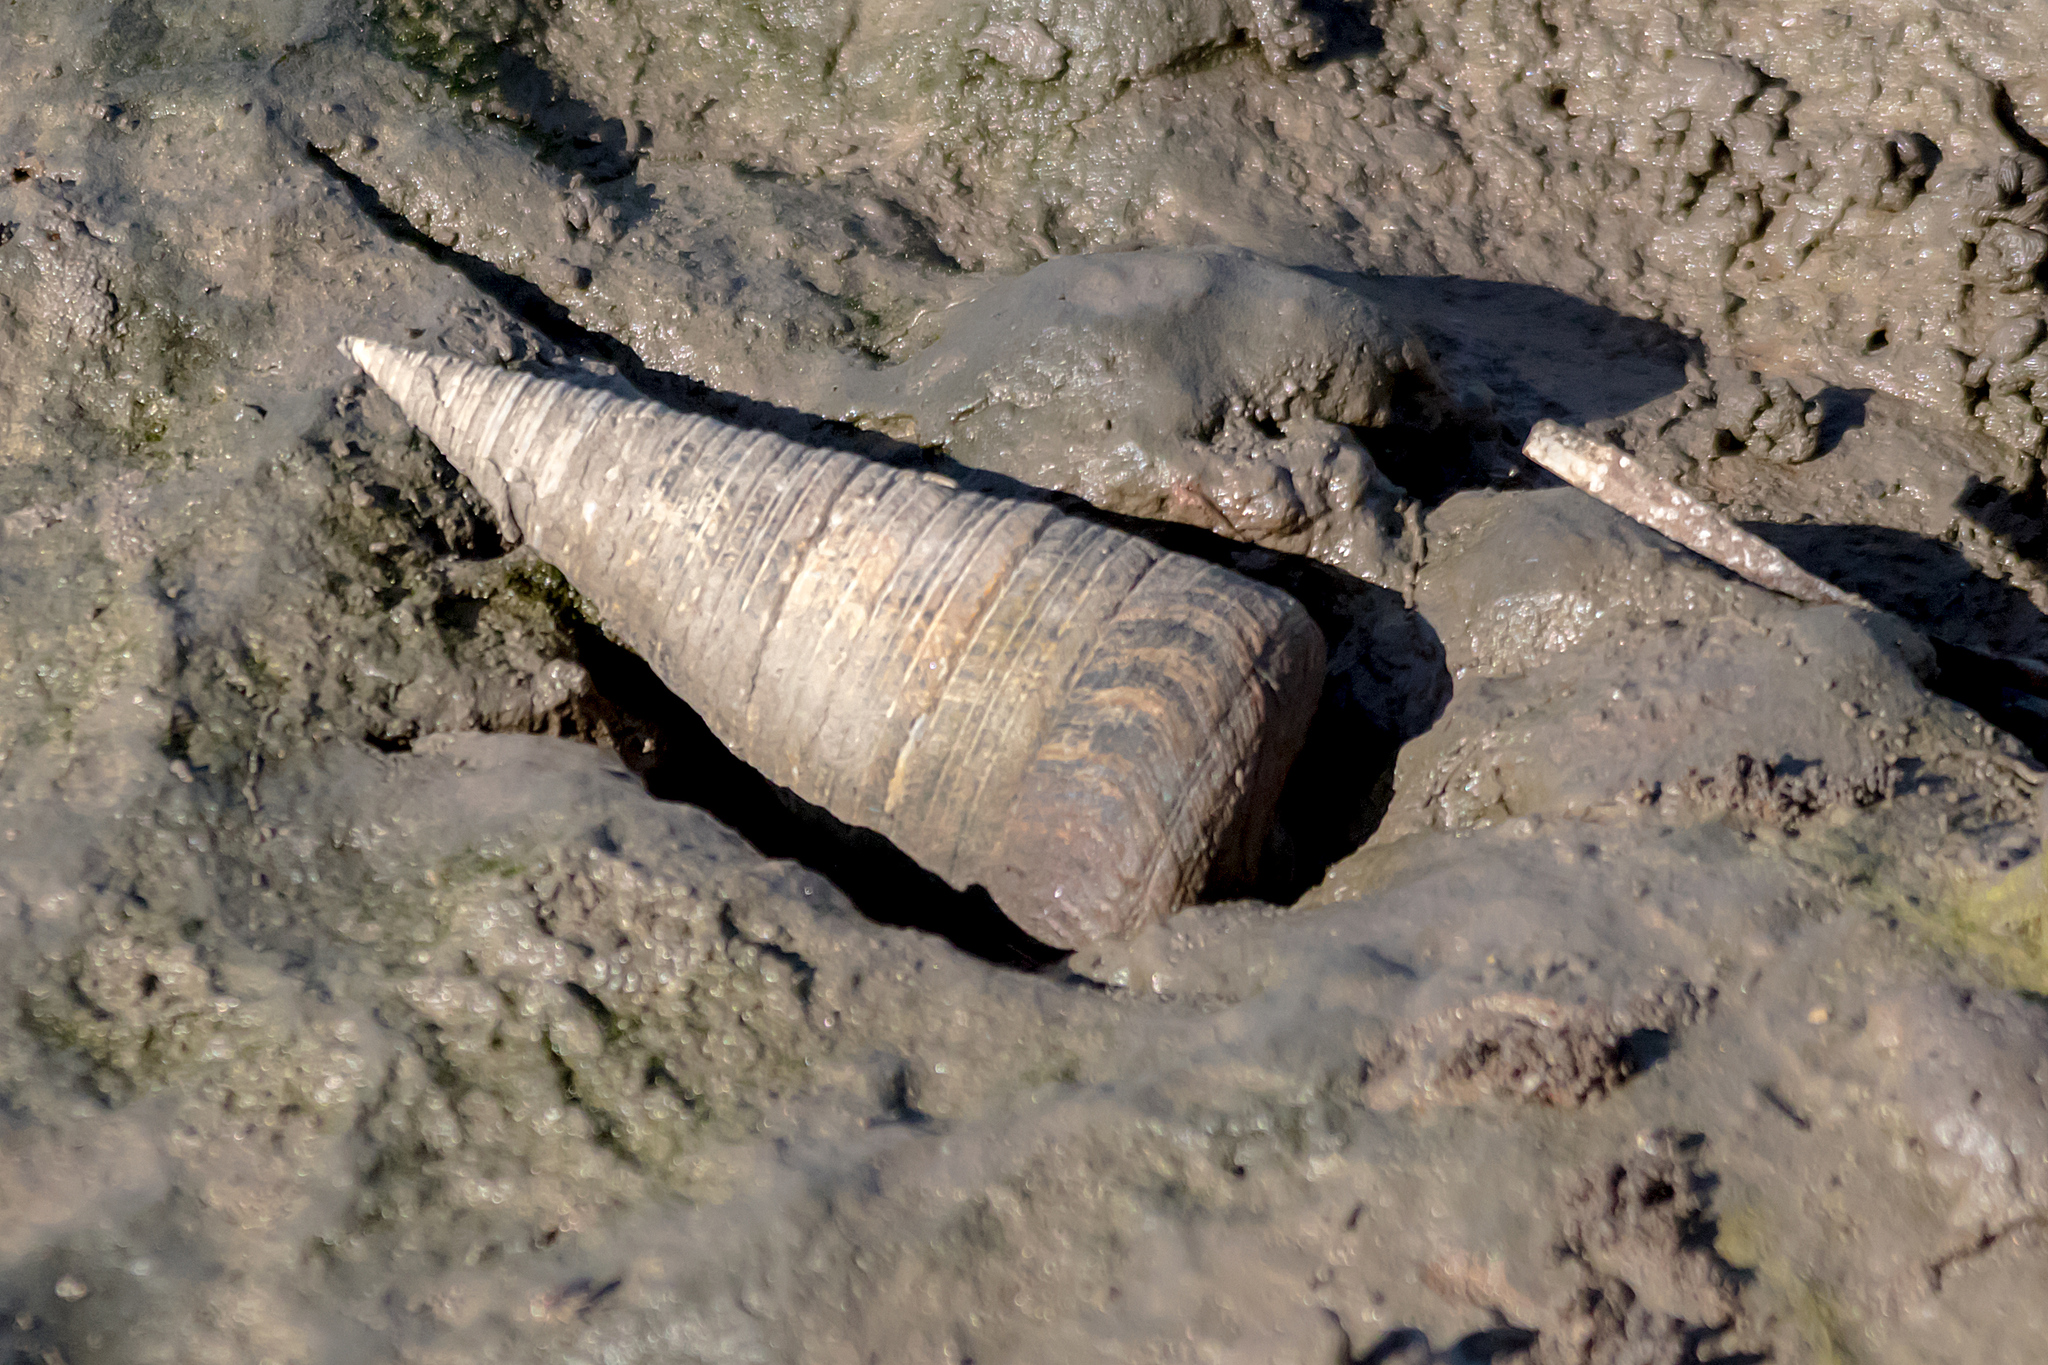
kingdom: Animalia
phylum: Mollusca
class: Gastropoda
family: Potamididae
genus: Telescopium
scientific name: Telescopium telescopium
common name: Telescope creeper
